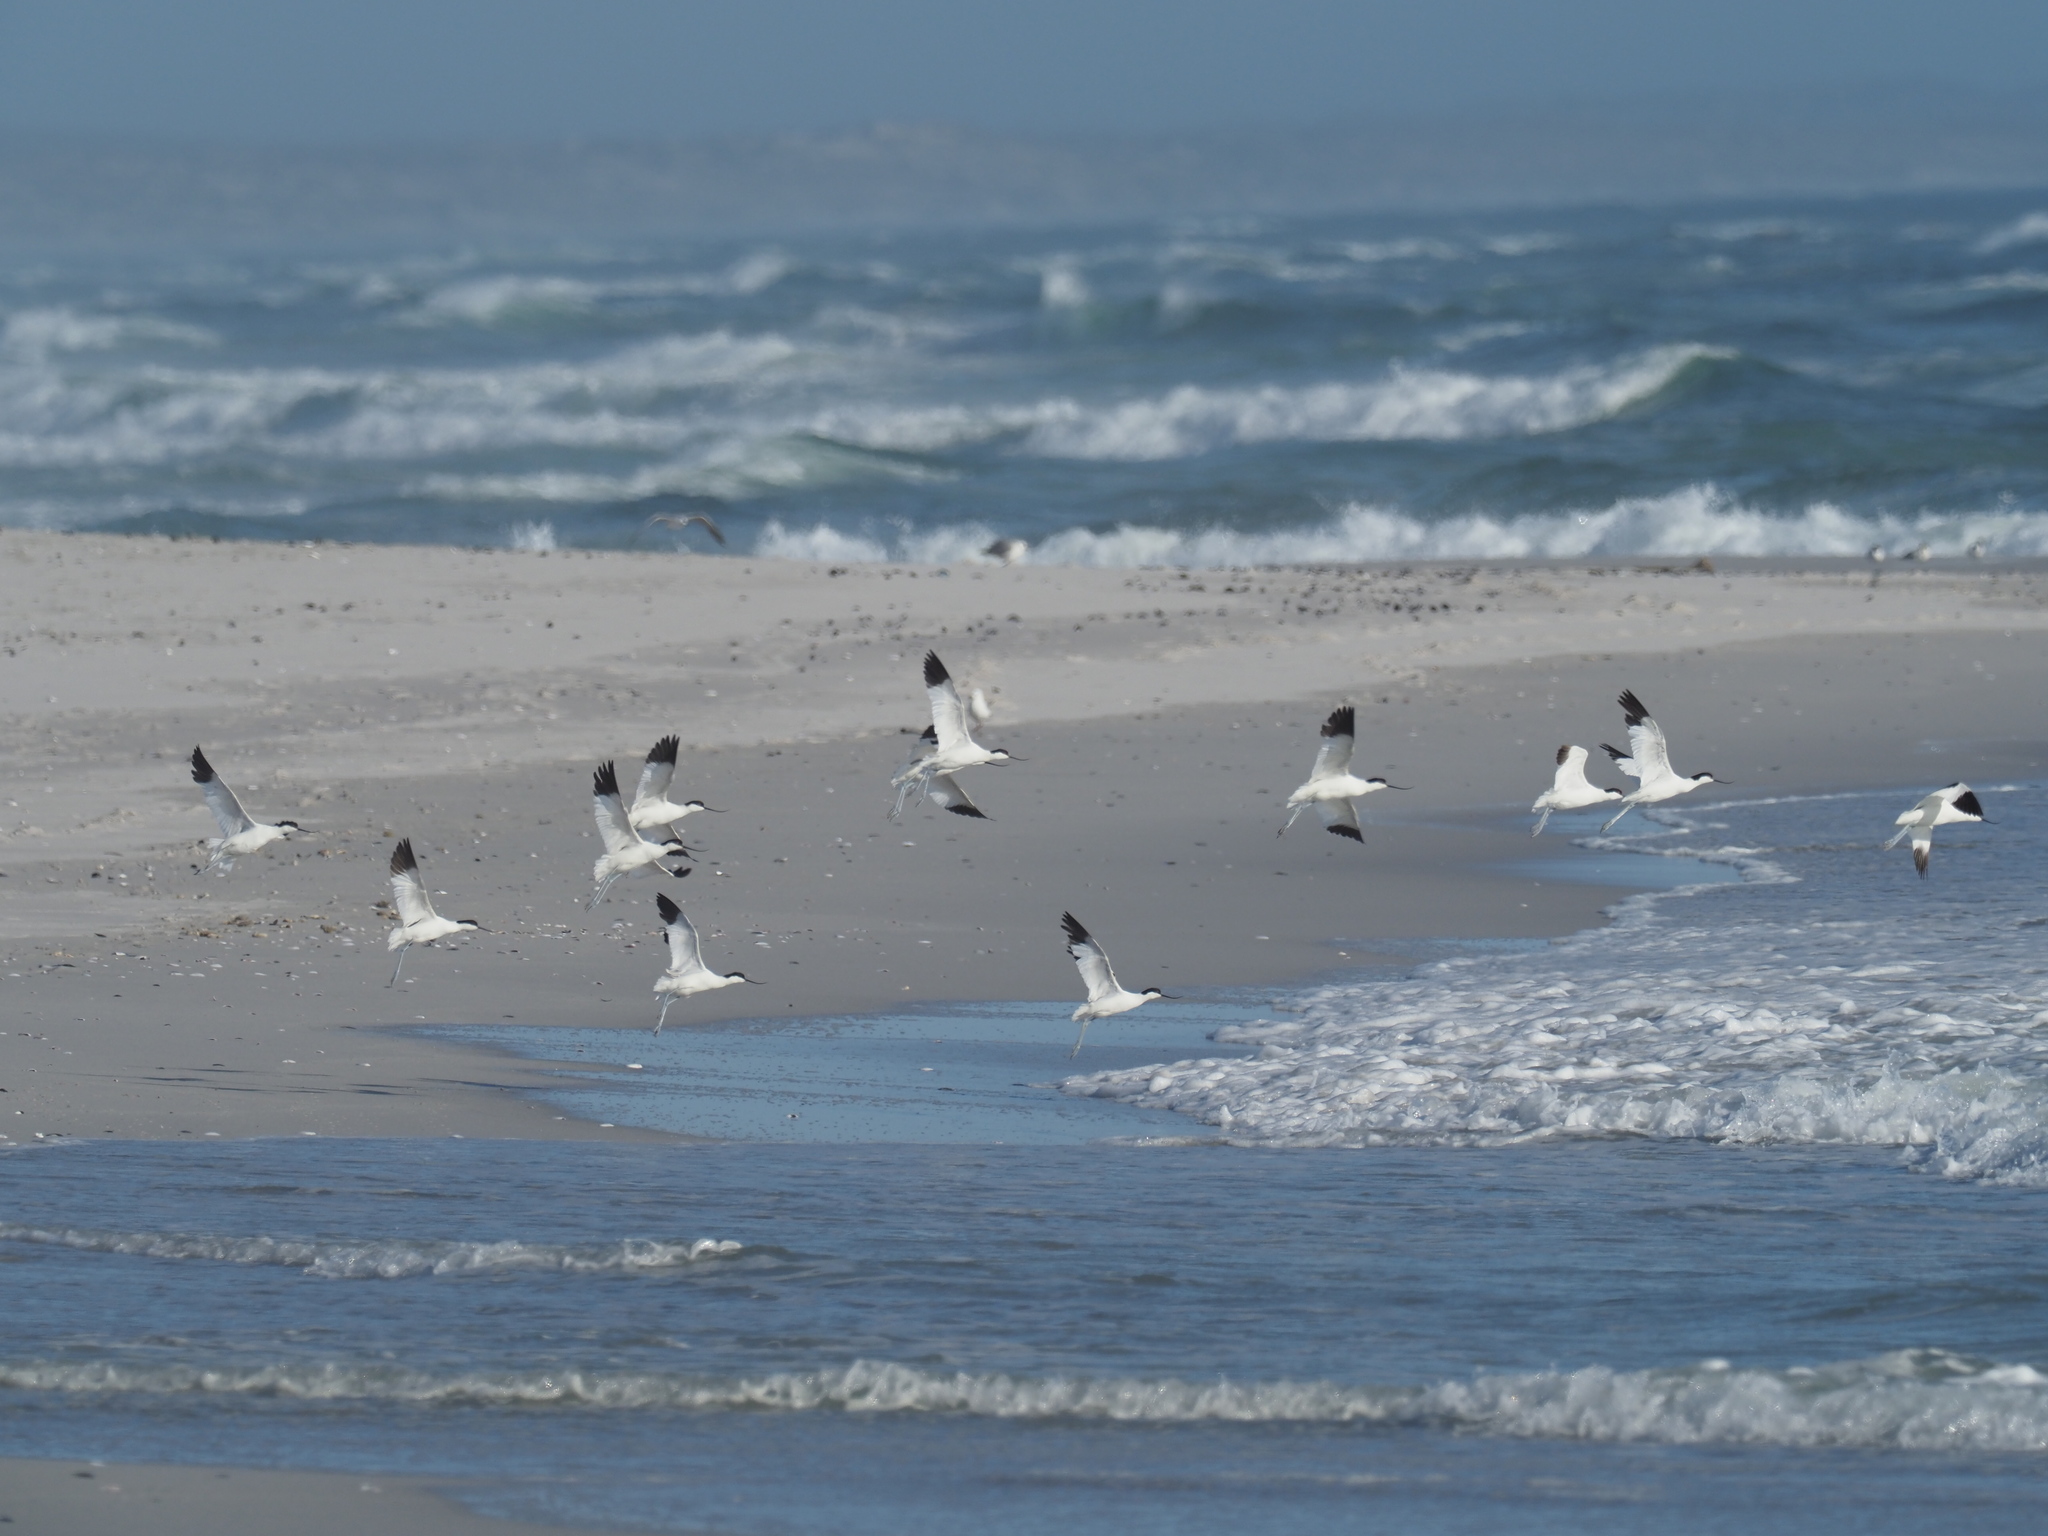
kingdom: Animalia
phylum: Chordata
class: Aves
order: Charadriiformes
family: Recurvirostridae
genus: Recurvirostra
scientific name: Recurvirostra avosetta
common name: Pied avocet
